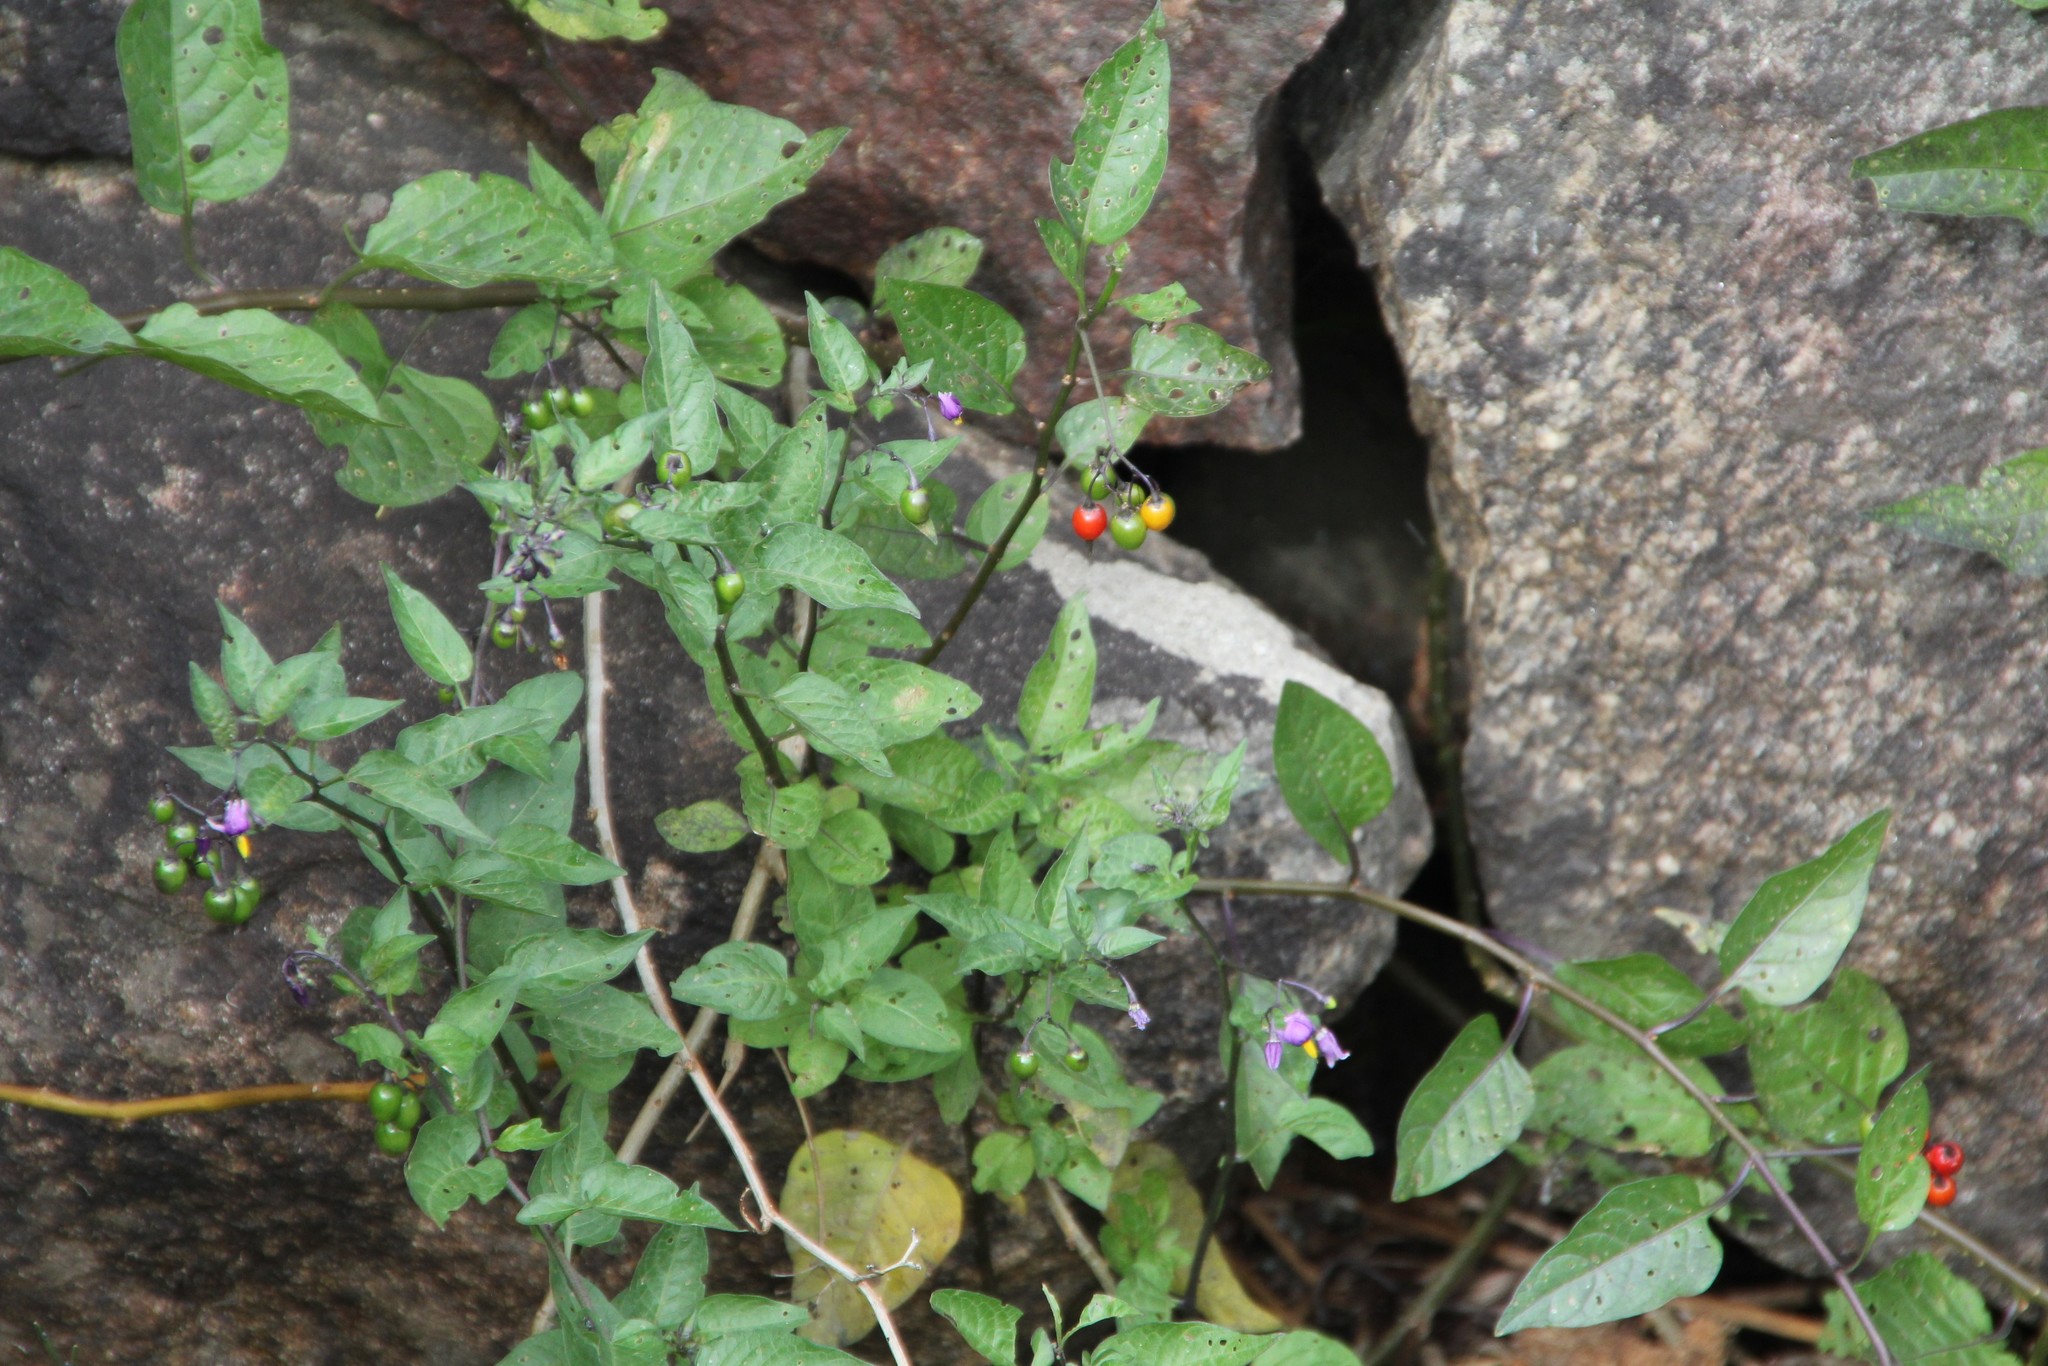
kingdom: Plantae
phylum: Tracheophyta
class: Magnoliopsida
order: Solanales
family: Solanaceae
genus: Solanum
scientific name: Solanum dulcamara
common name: Climbing nightshade
